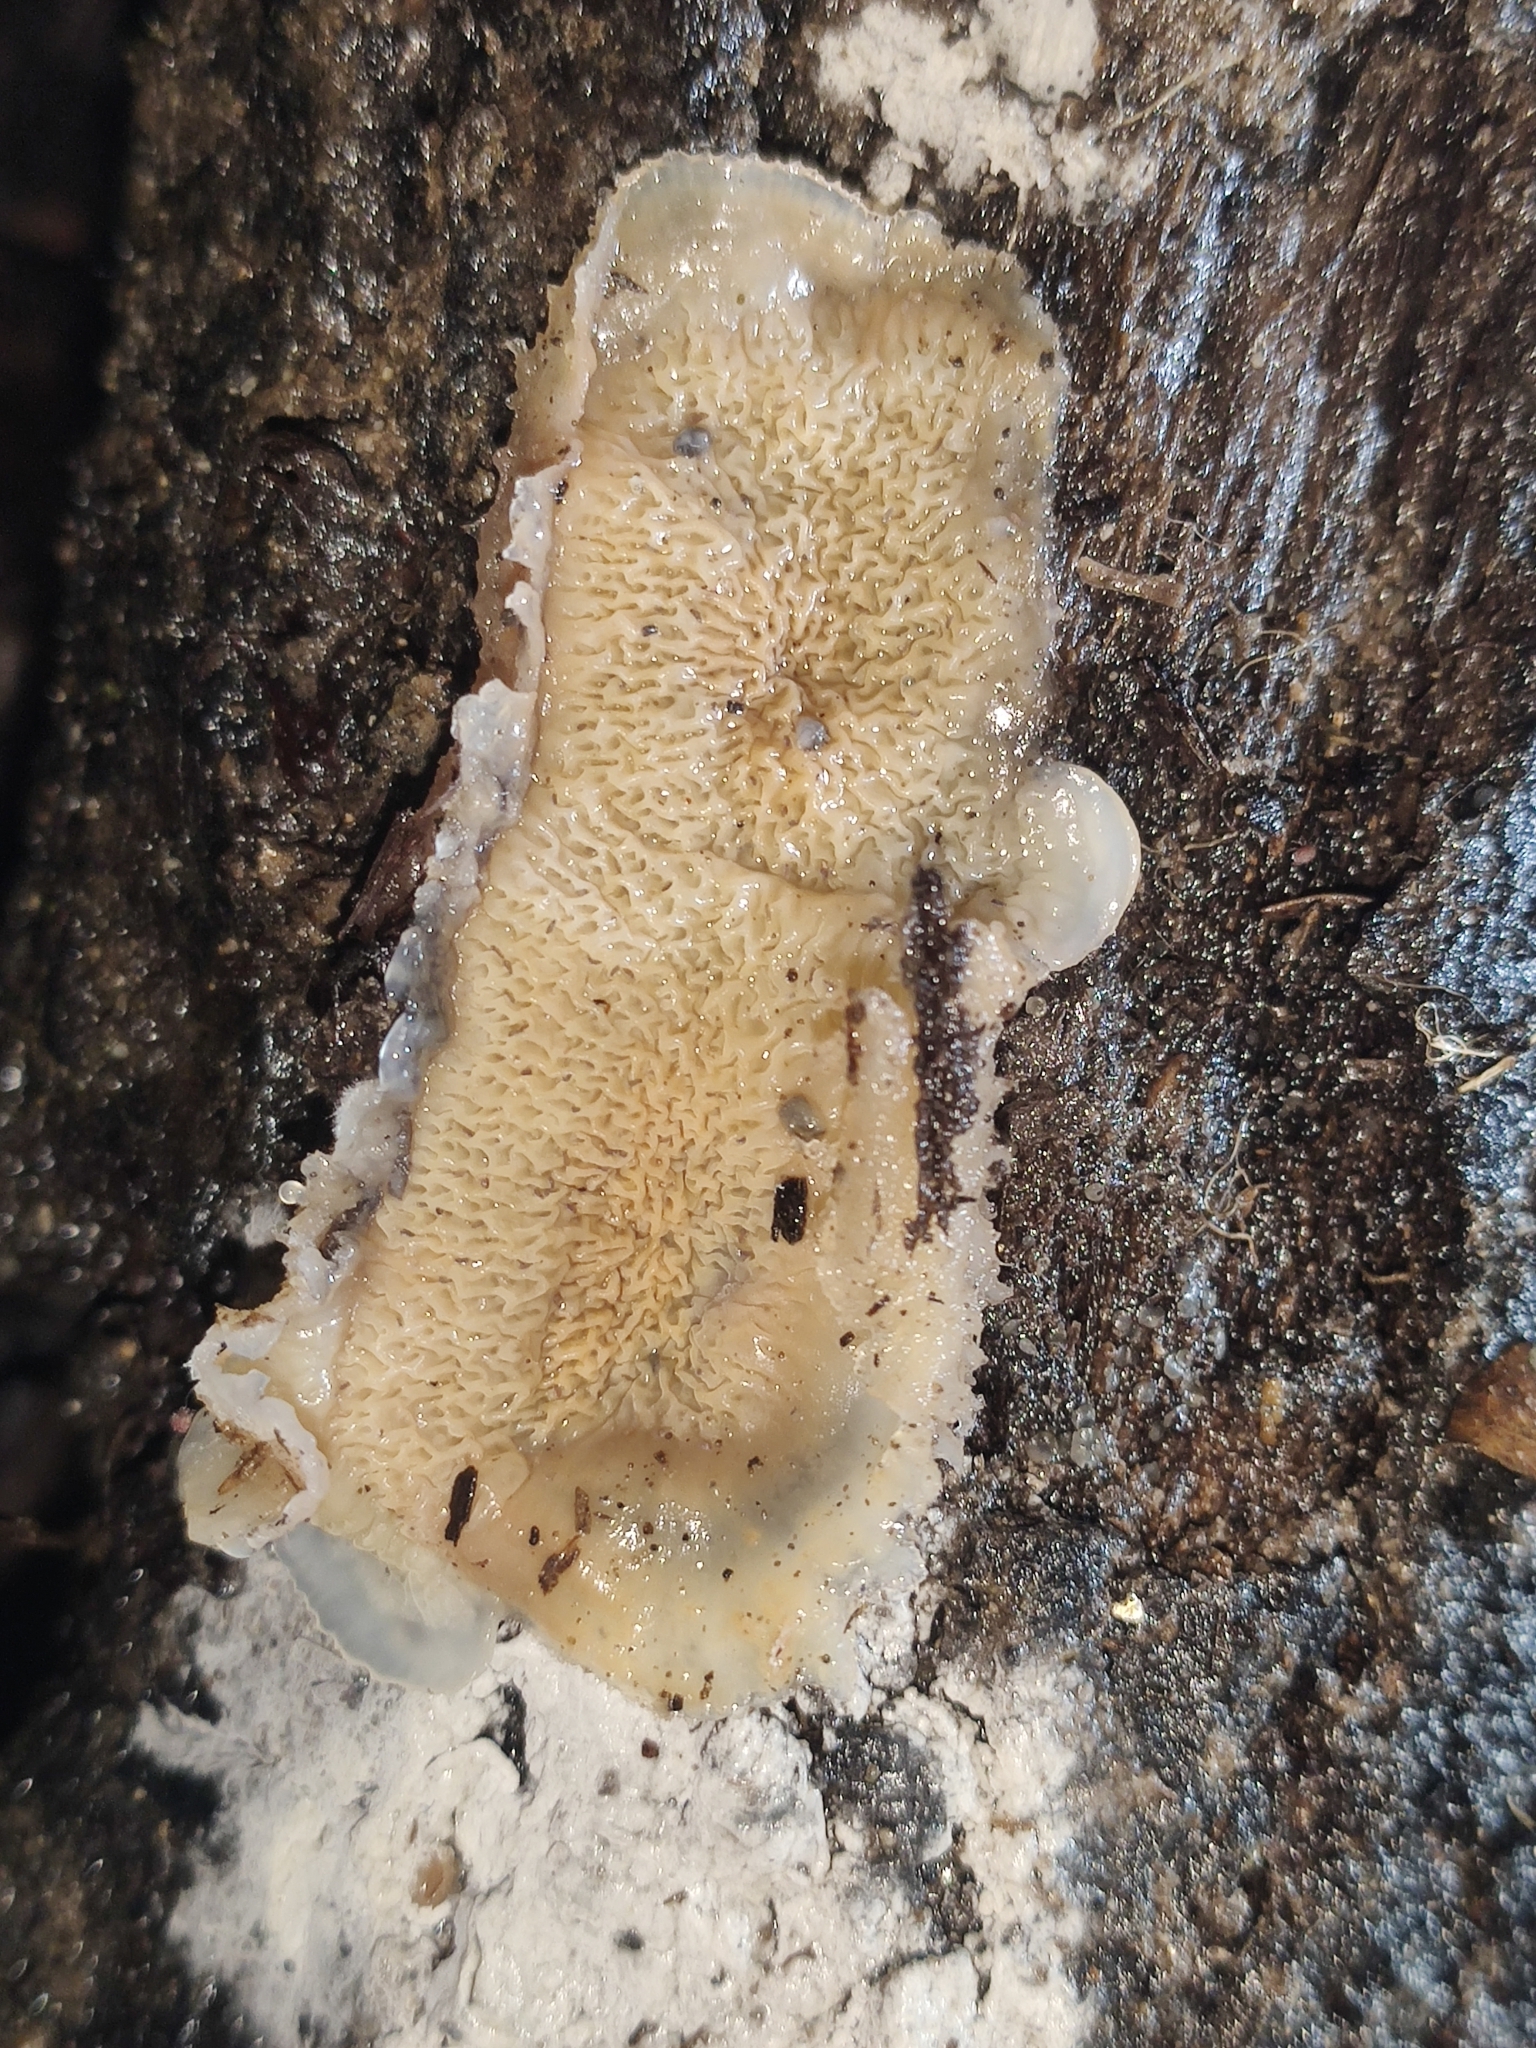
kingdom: Fungi
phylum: Basidiomycota
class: Agaricomycetes
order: Polyporales
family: Meruliaceae
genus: Phlebia
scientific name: Phlebia tremellosa
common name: Jelly rot
